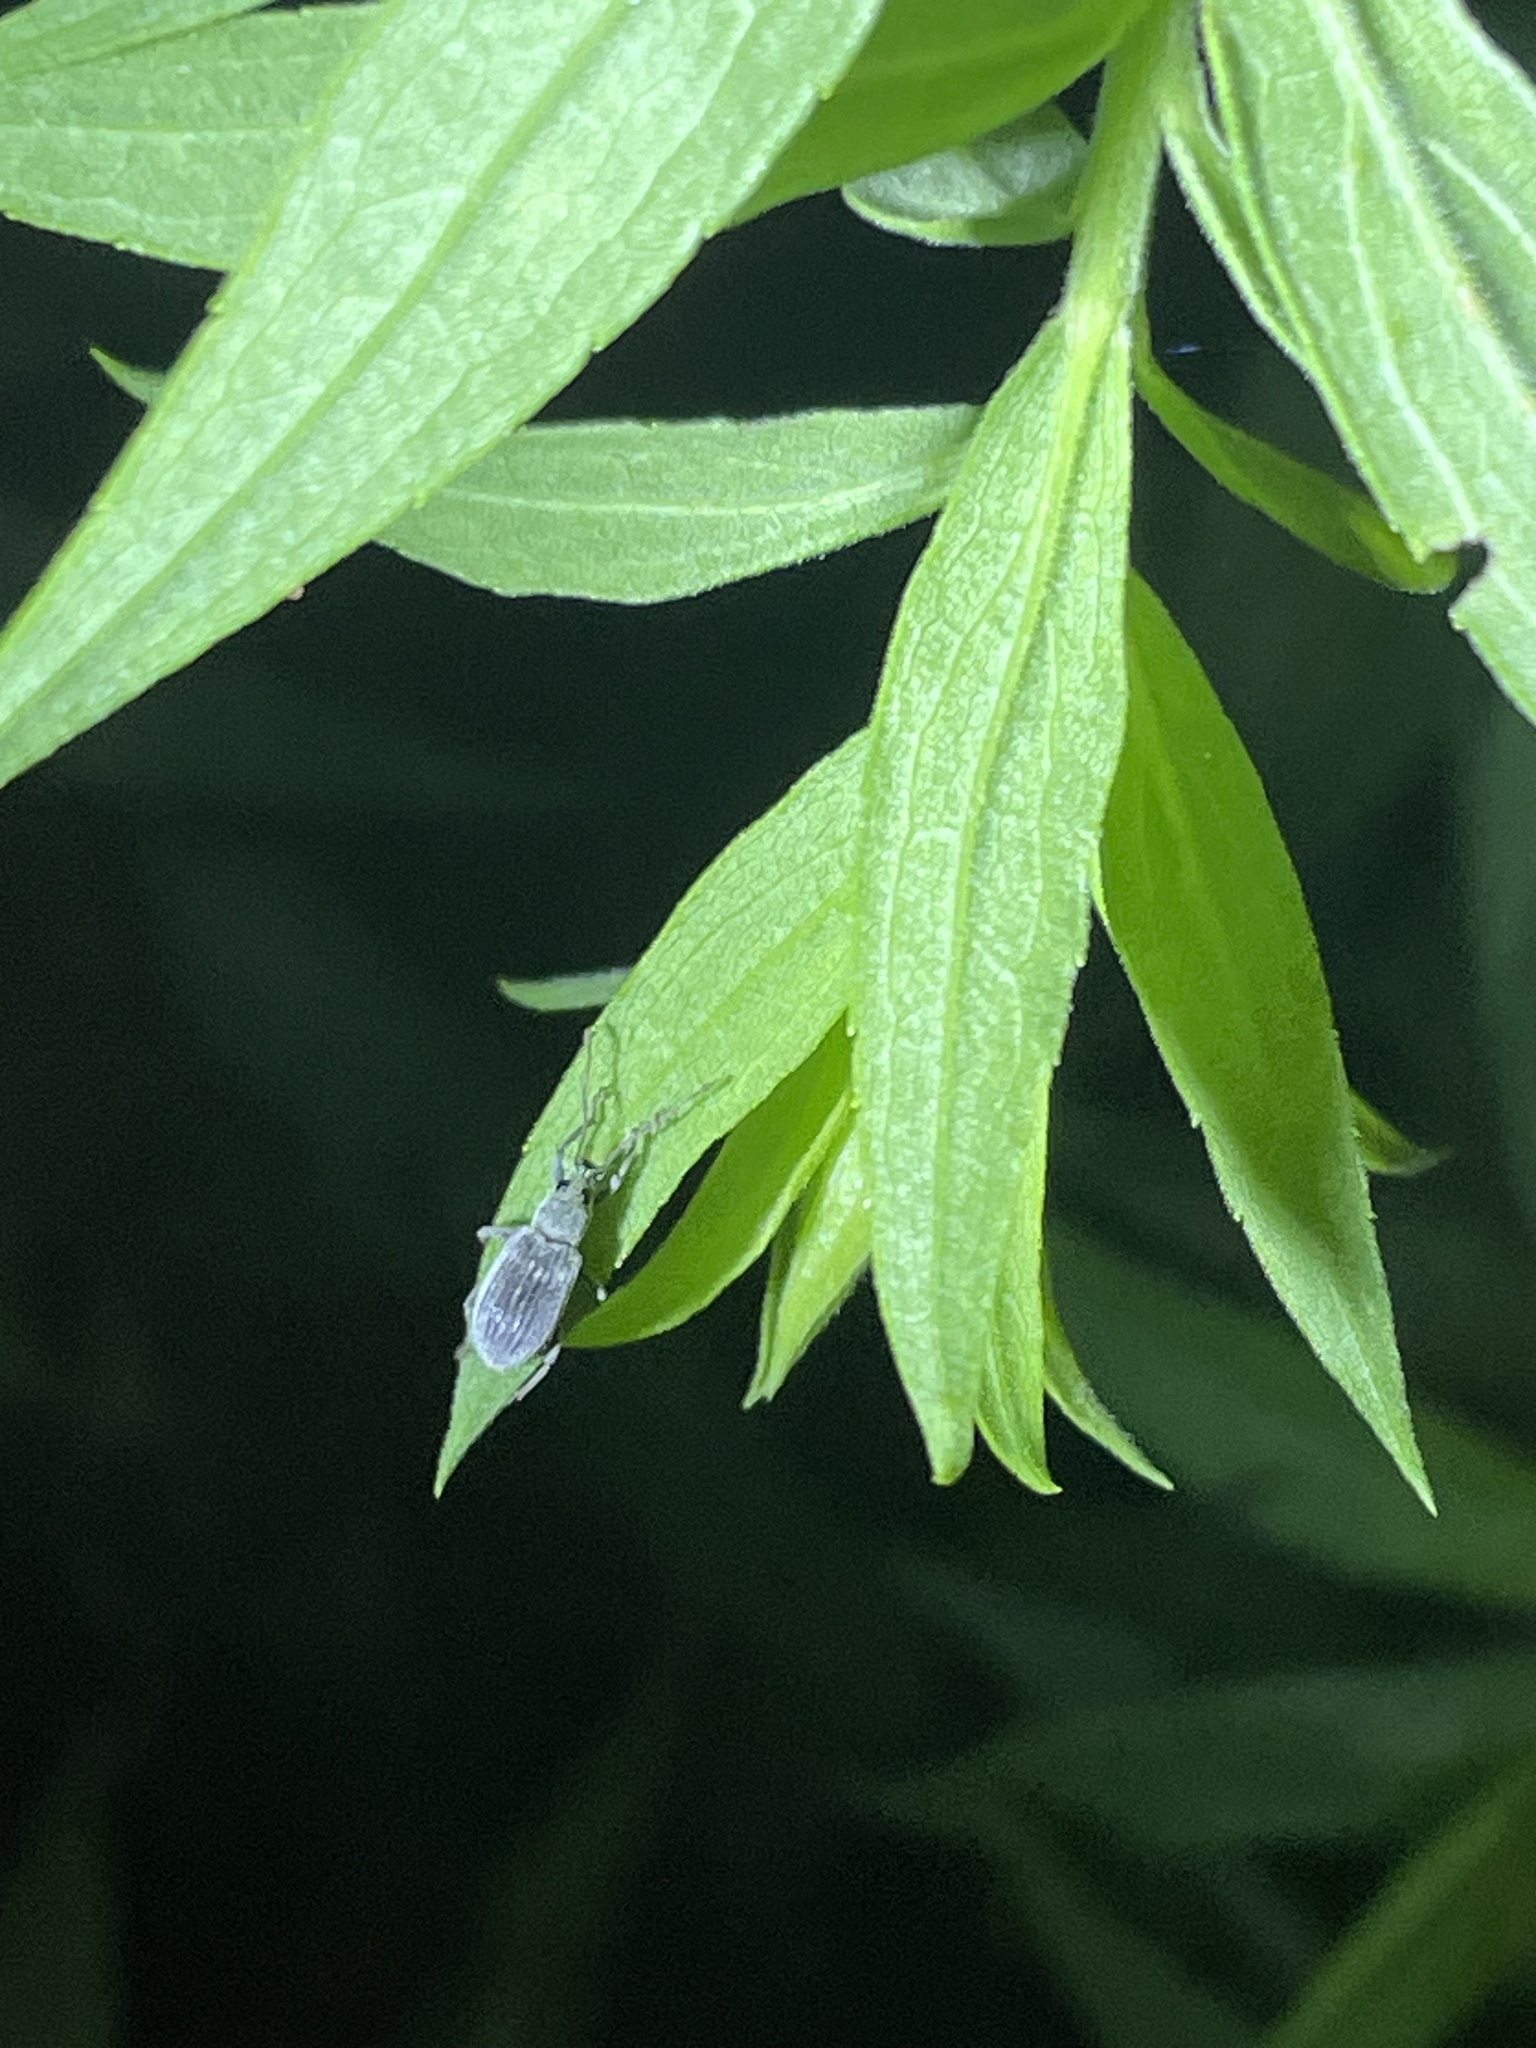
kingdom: Animalia
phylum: Arthropoda
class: Insecta
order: Coleoptera
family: Curculionidae
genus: Cyrtepistomus
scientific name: Cyrtepistomus castaneus
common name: Weevil
